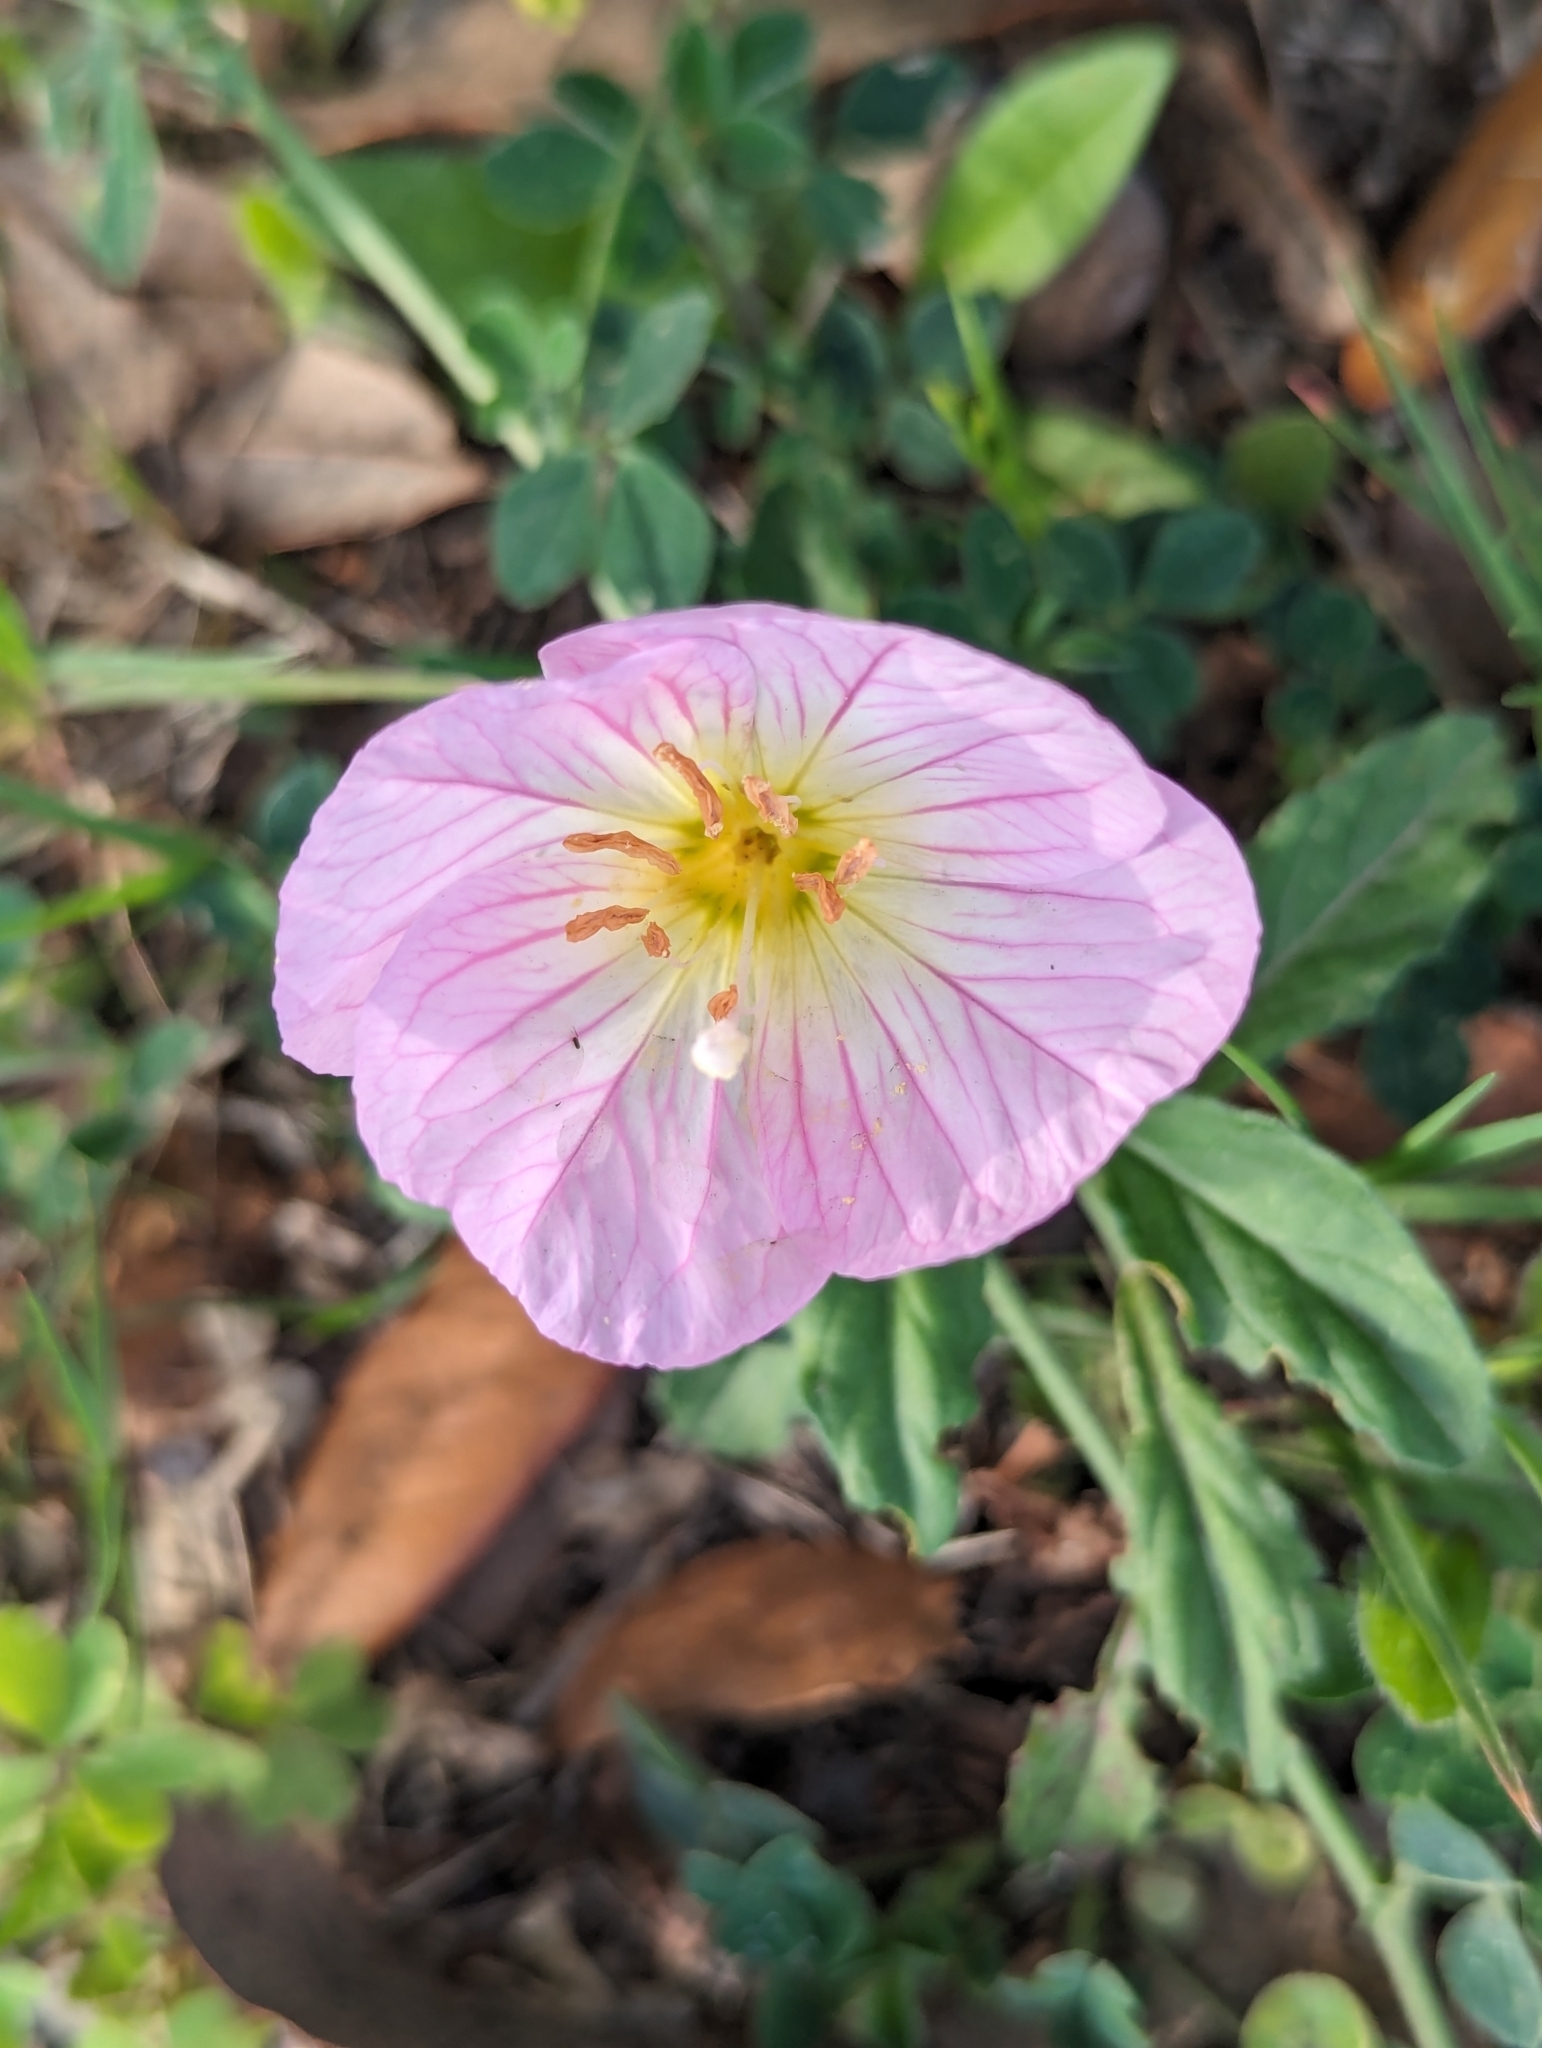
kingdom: Plantae
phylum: Tracheophyta
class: Magnoliopsida
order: Myrtales
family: Onagraceae
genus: Oenothera
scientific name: Oenothera speciosa
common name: White evening-primrose
